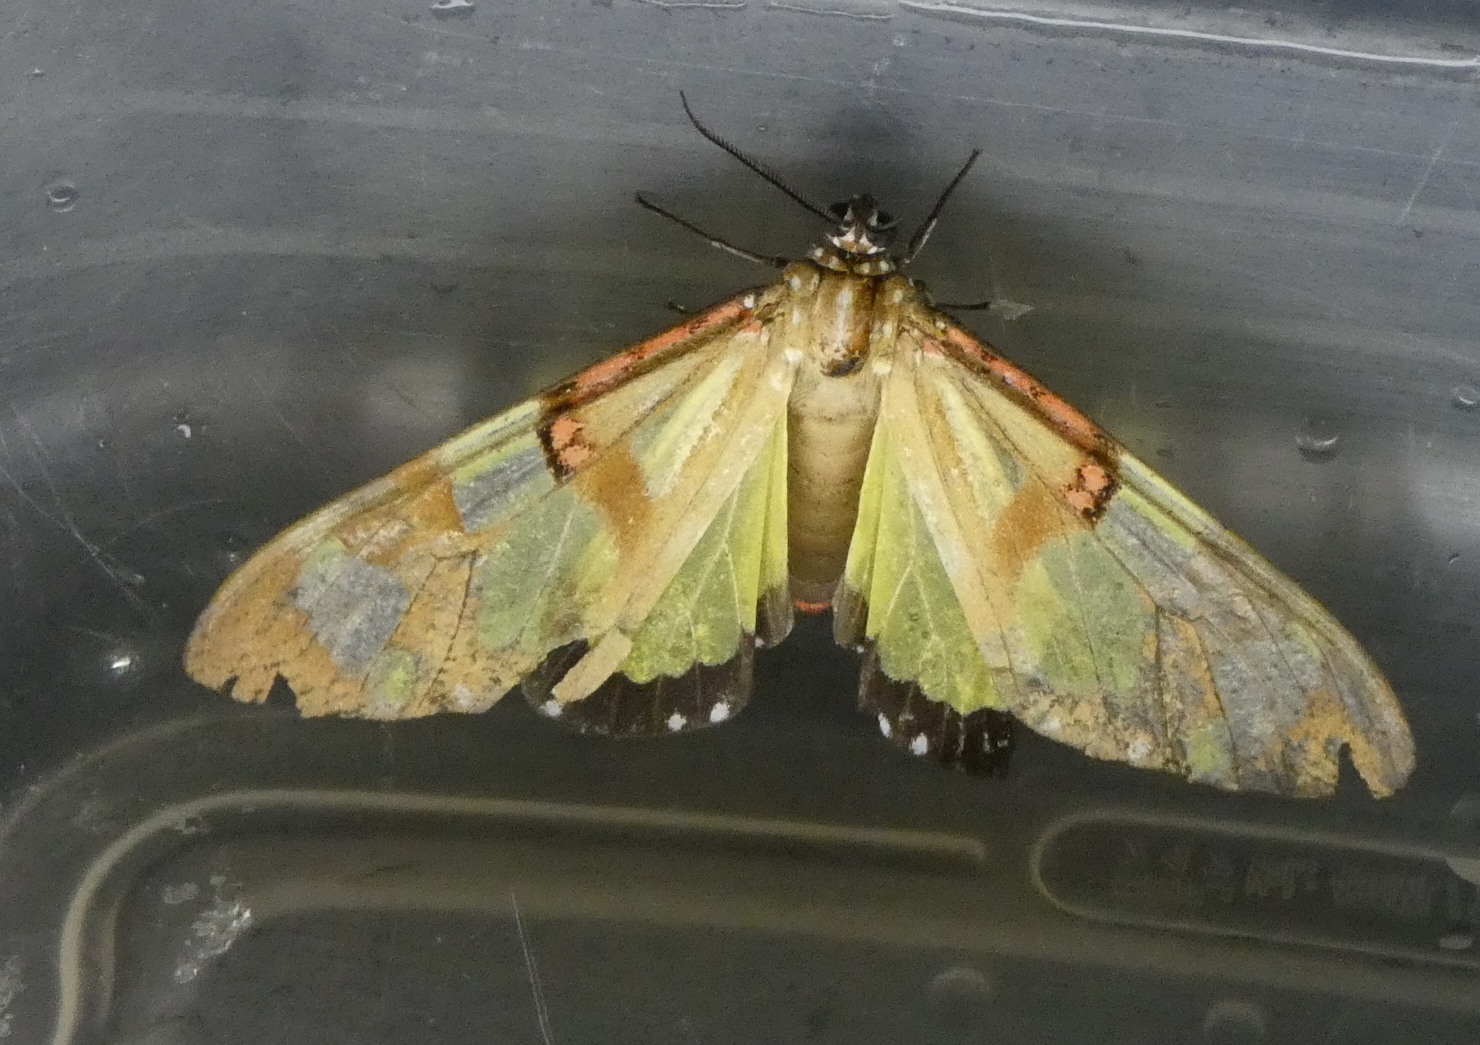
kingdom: Animalia
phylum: Arthropoda
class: Insecta
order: Lepidoptera
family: Erebidae
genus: Phaloe
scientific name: Phaloe cruenta
